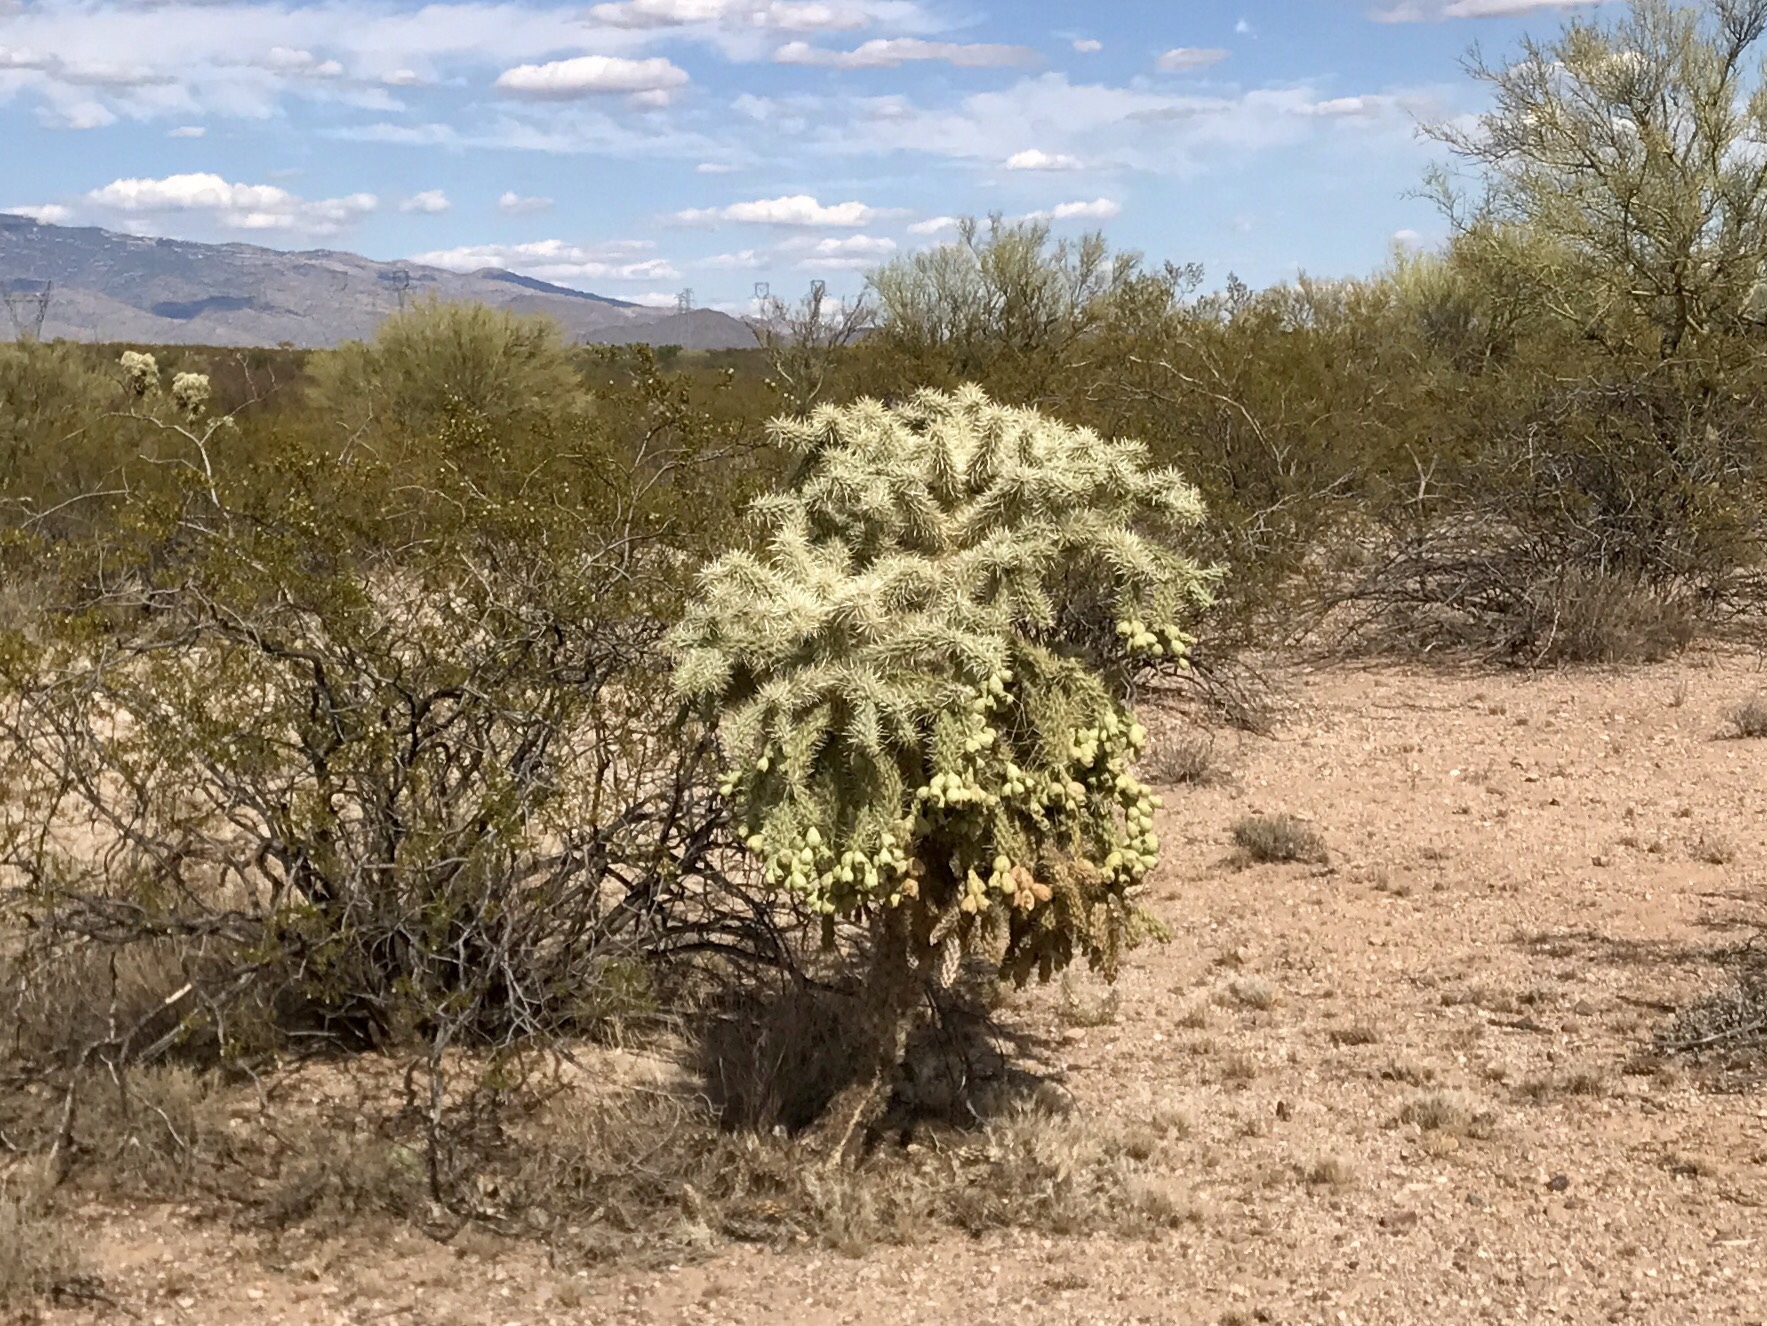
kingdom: Plantae
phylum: Tracheophyta
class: Magnoliopsida
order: Caryophyllales
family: Cactaceae
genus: Cylindropuntia
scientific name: Cylindropuntia fulgida
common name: Jumping cholla
